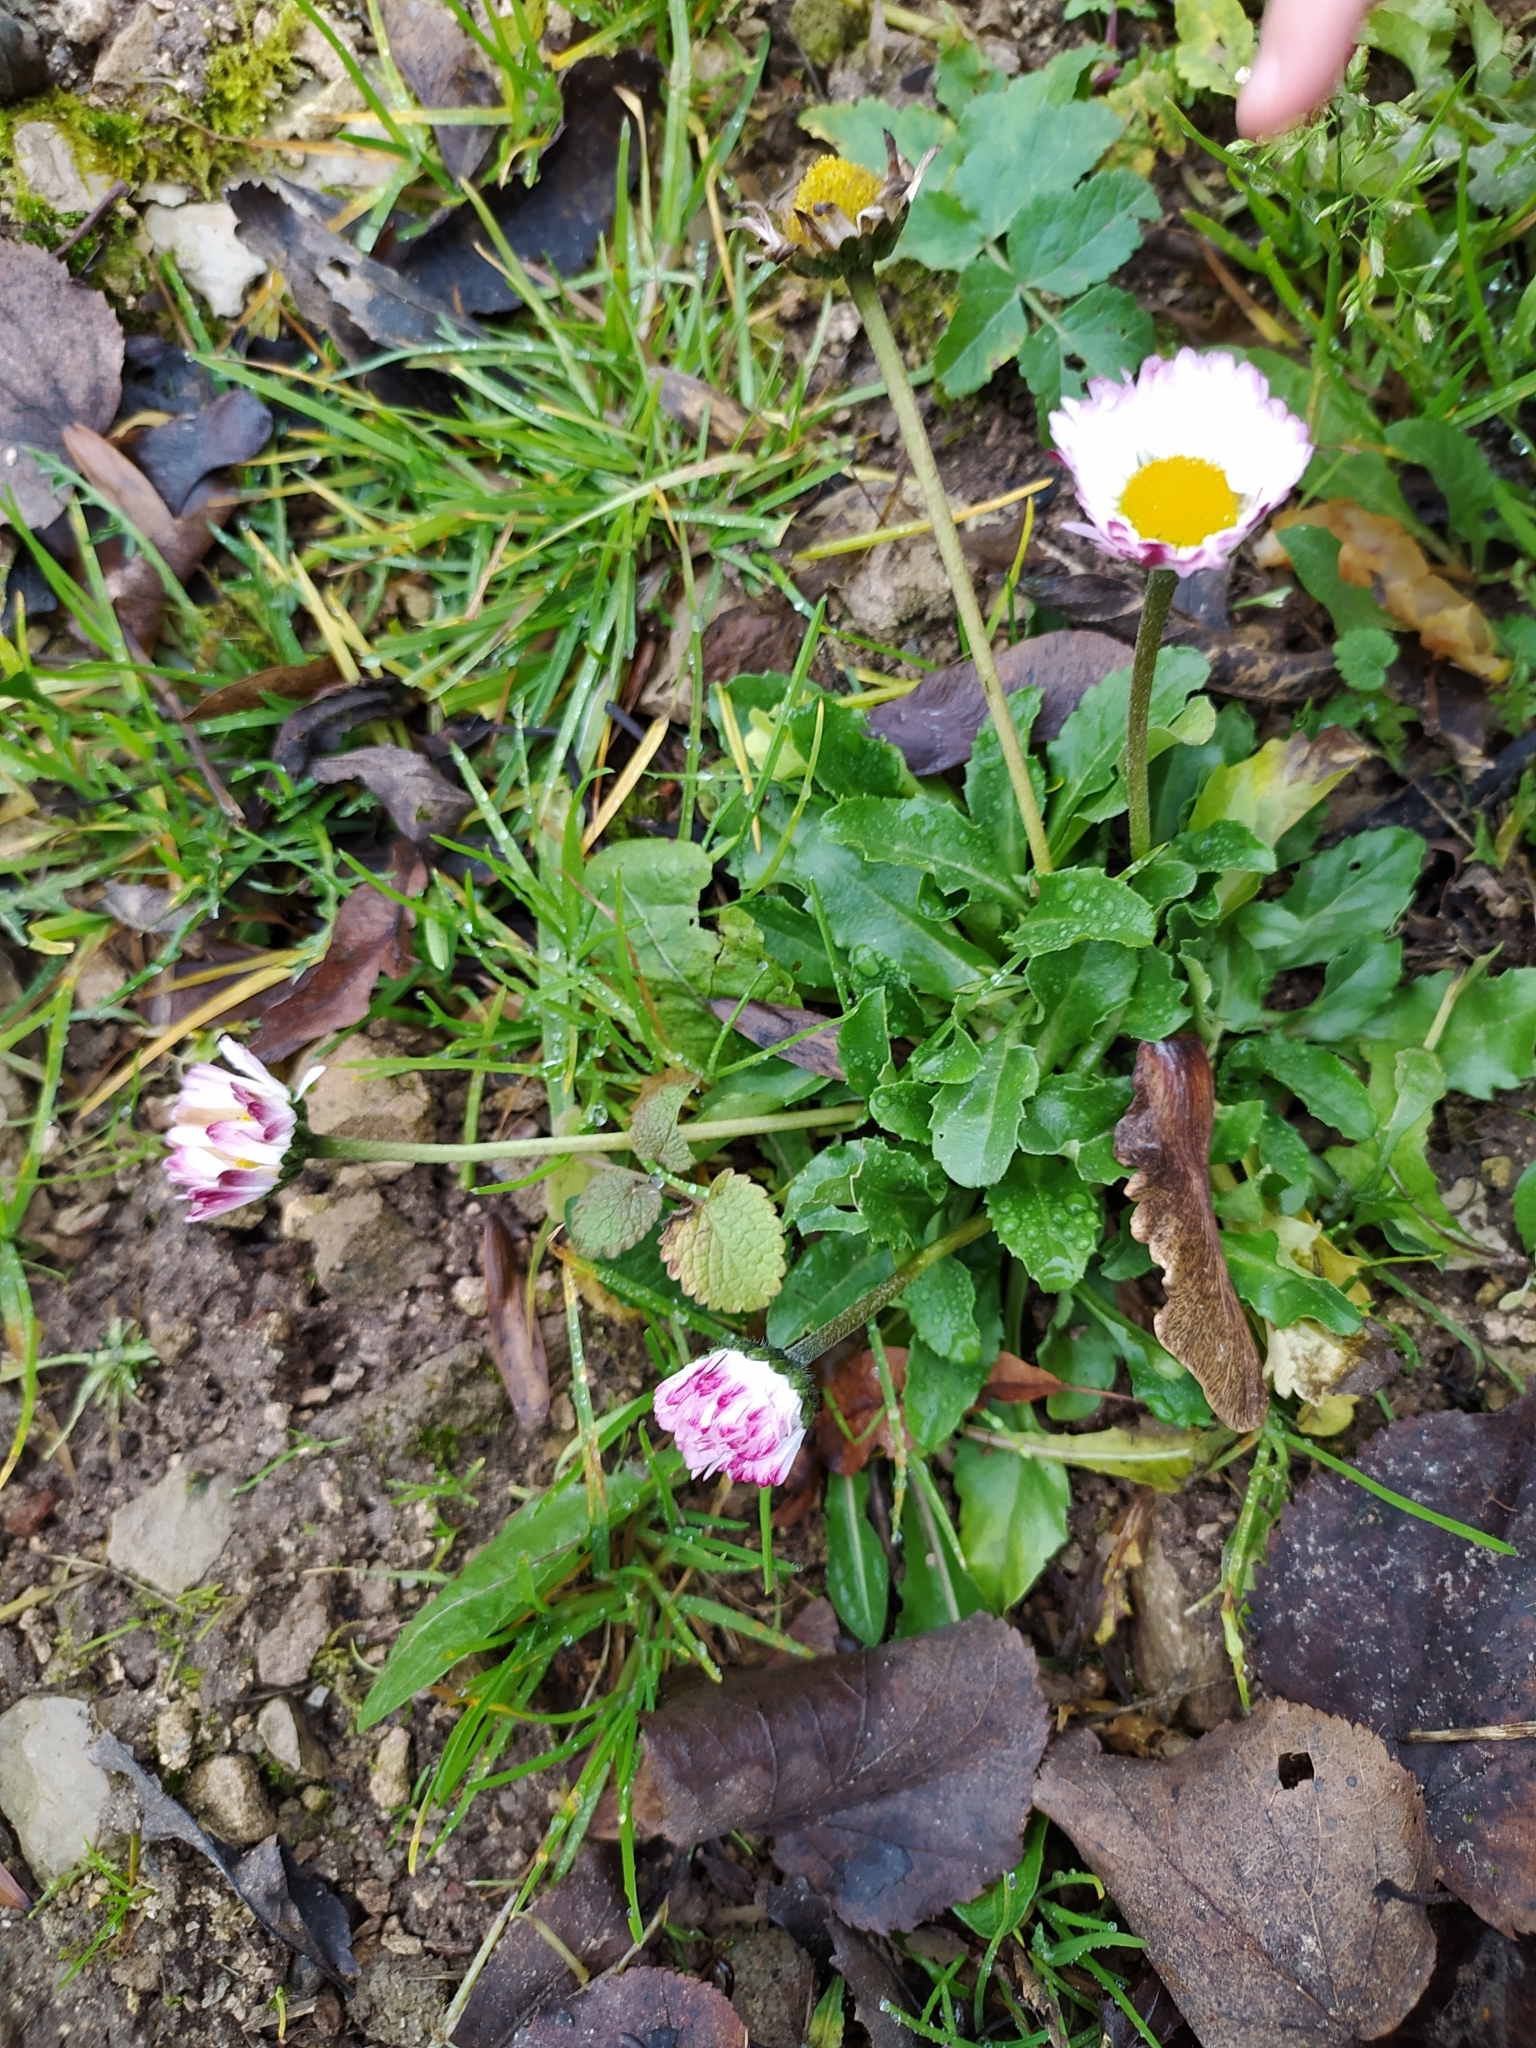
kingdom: Plantae
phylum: Tracheophyta
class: Magnoliopsida
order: Asterales
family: Asteraceae
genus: Bellis
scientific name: Bellis perennis
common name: Lawndaisy
